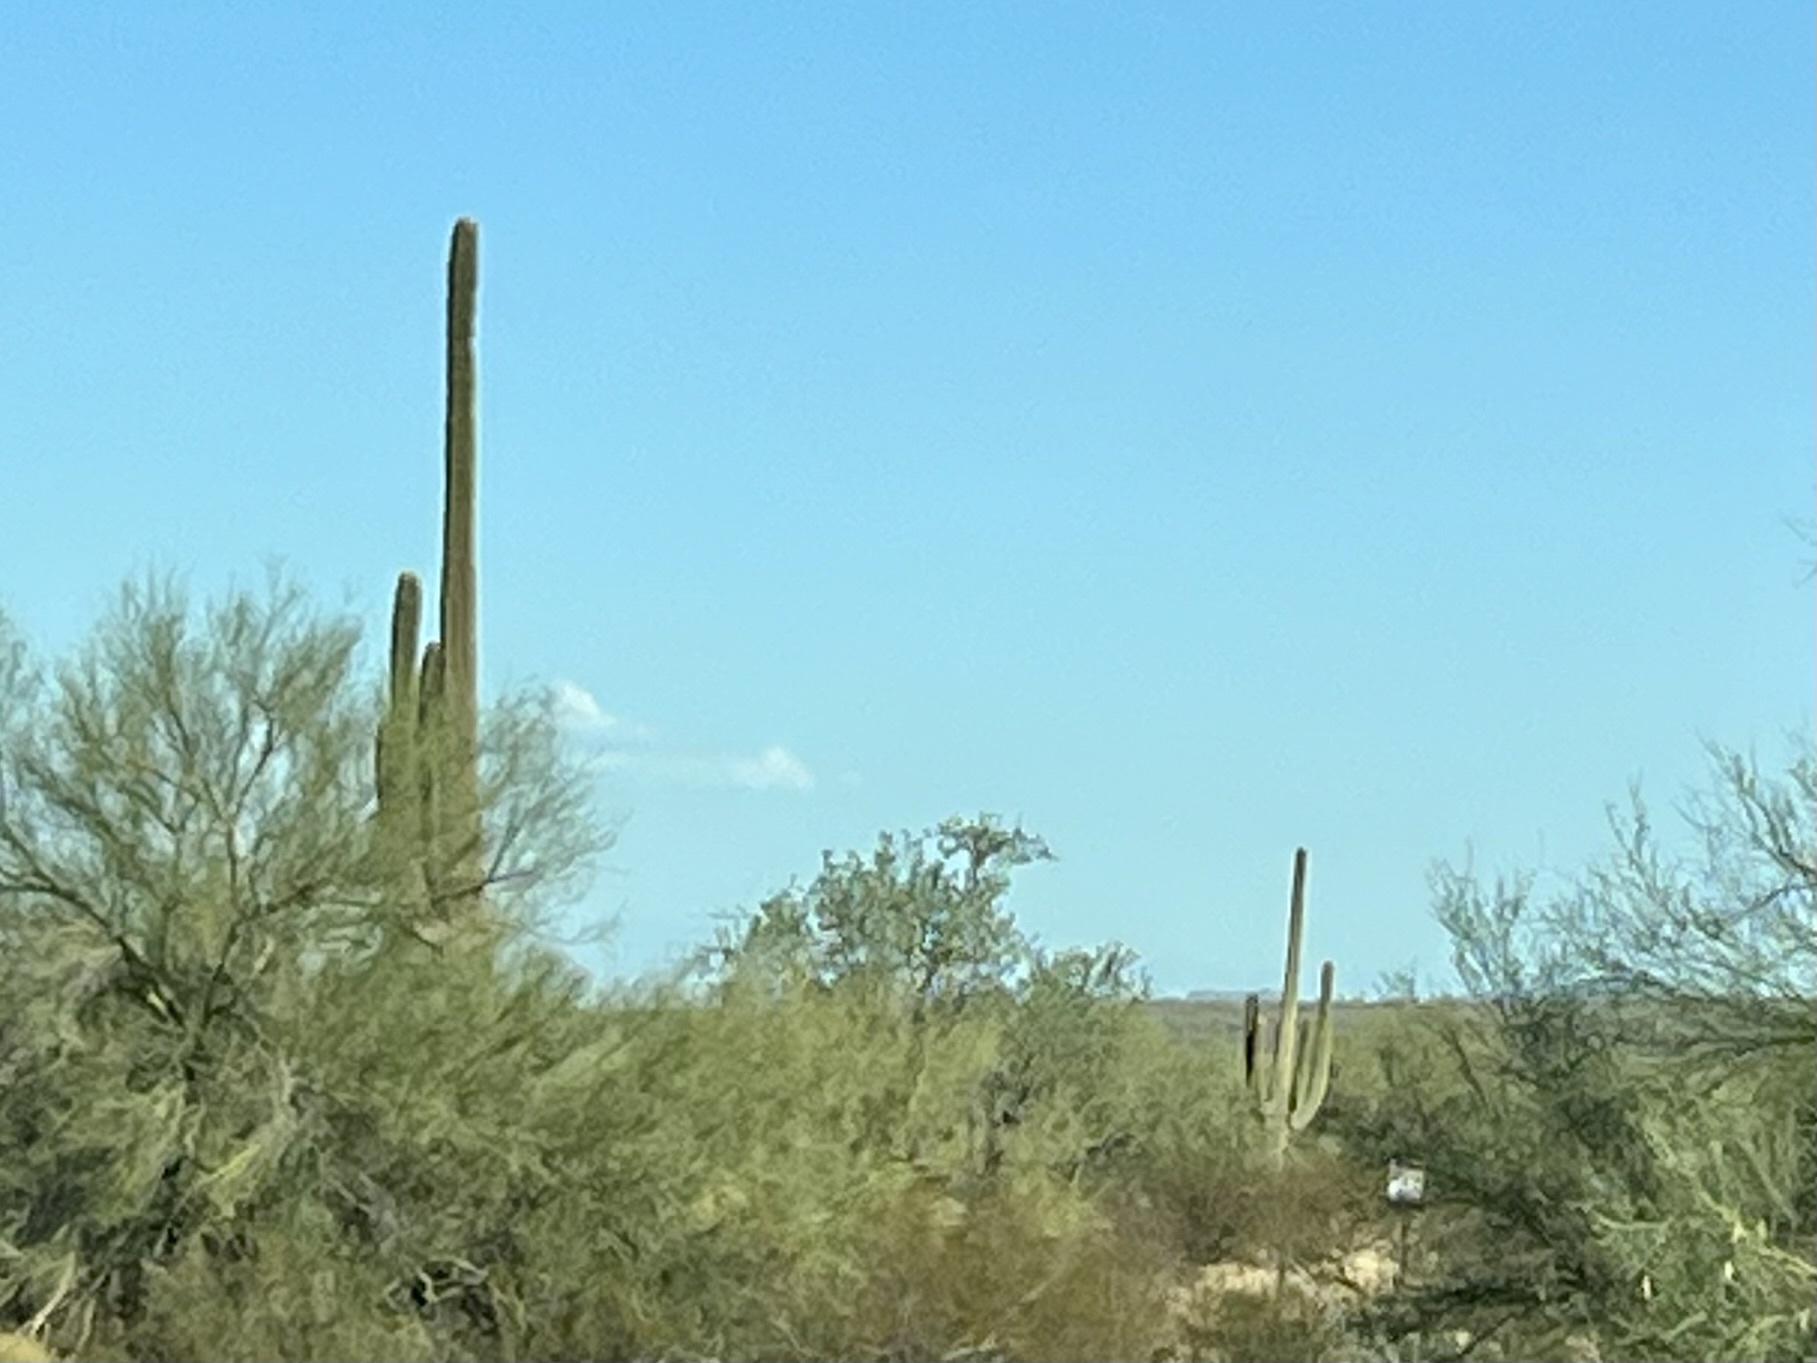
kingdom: Plantae
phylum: Tracheophyta
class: Magnoliopsida
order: Caryophyllales
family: Cactaceae
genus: Carnegiea
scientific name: Carnegiea gigantea
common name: Saguaro
